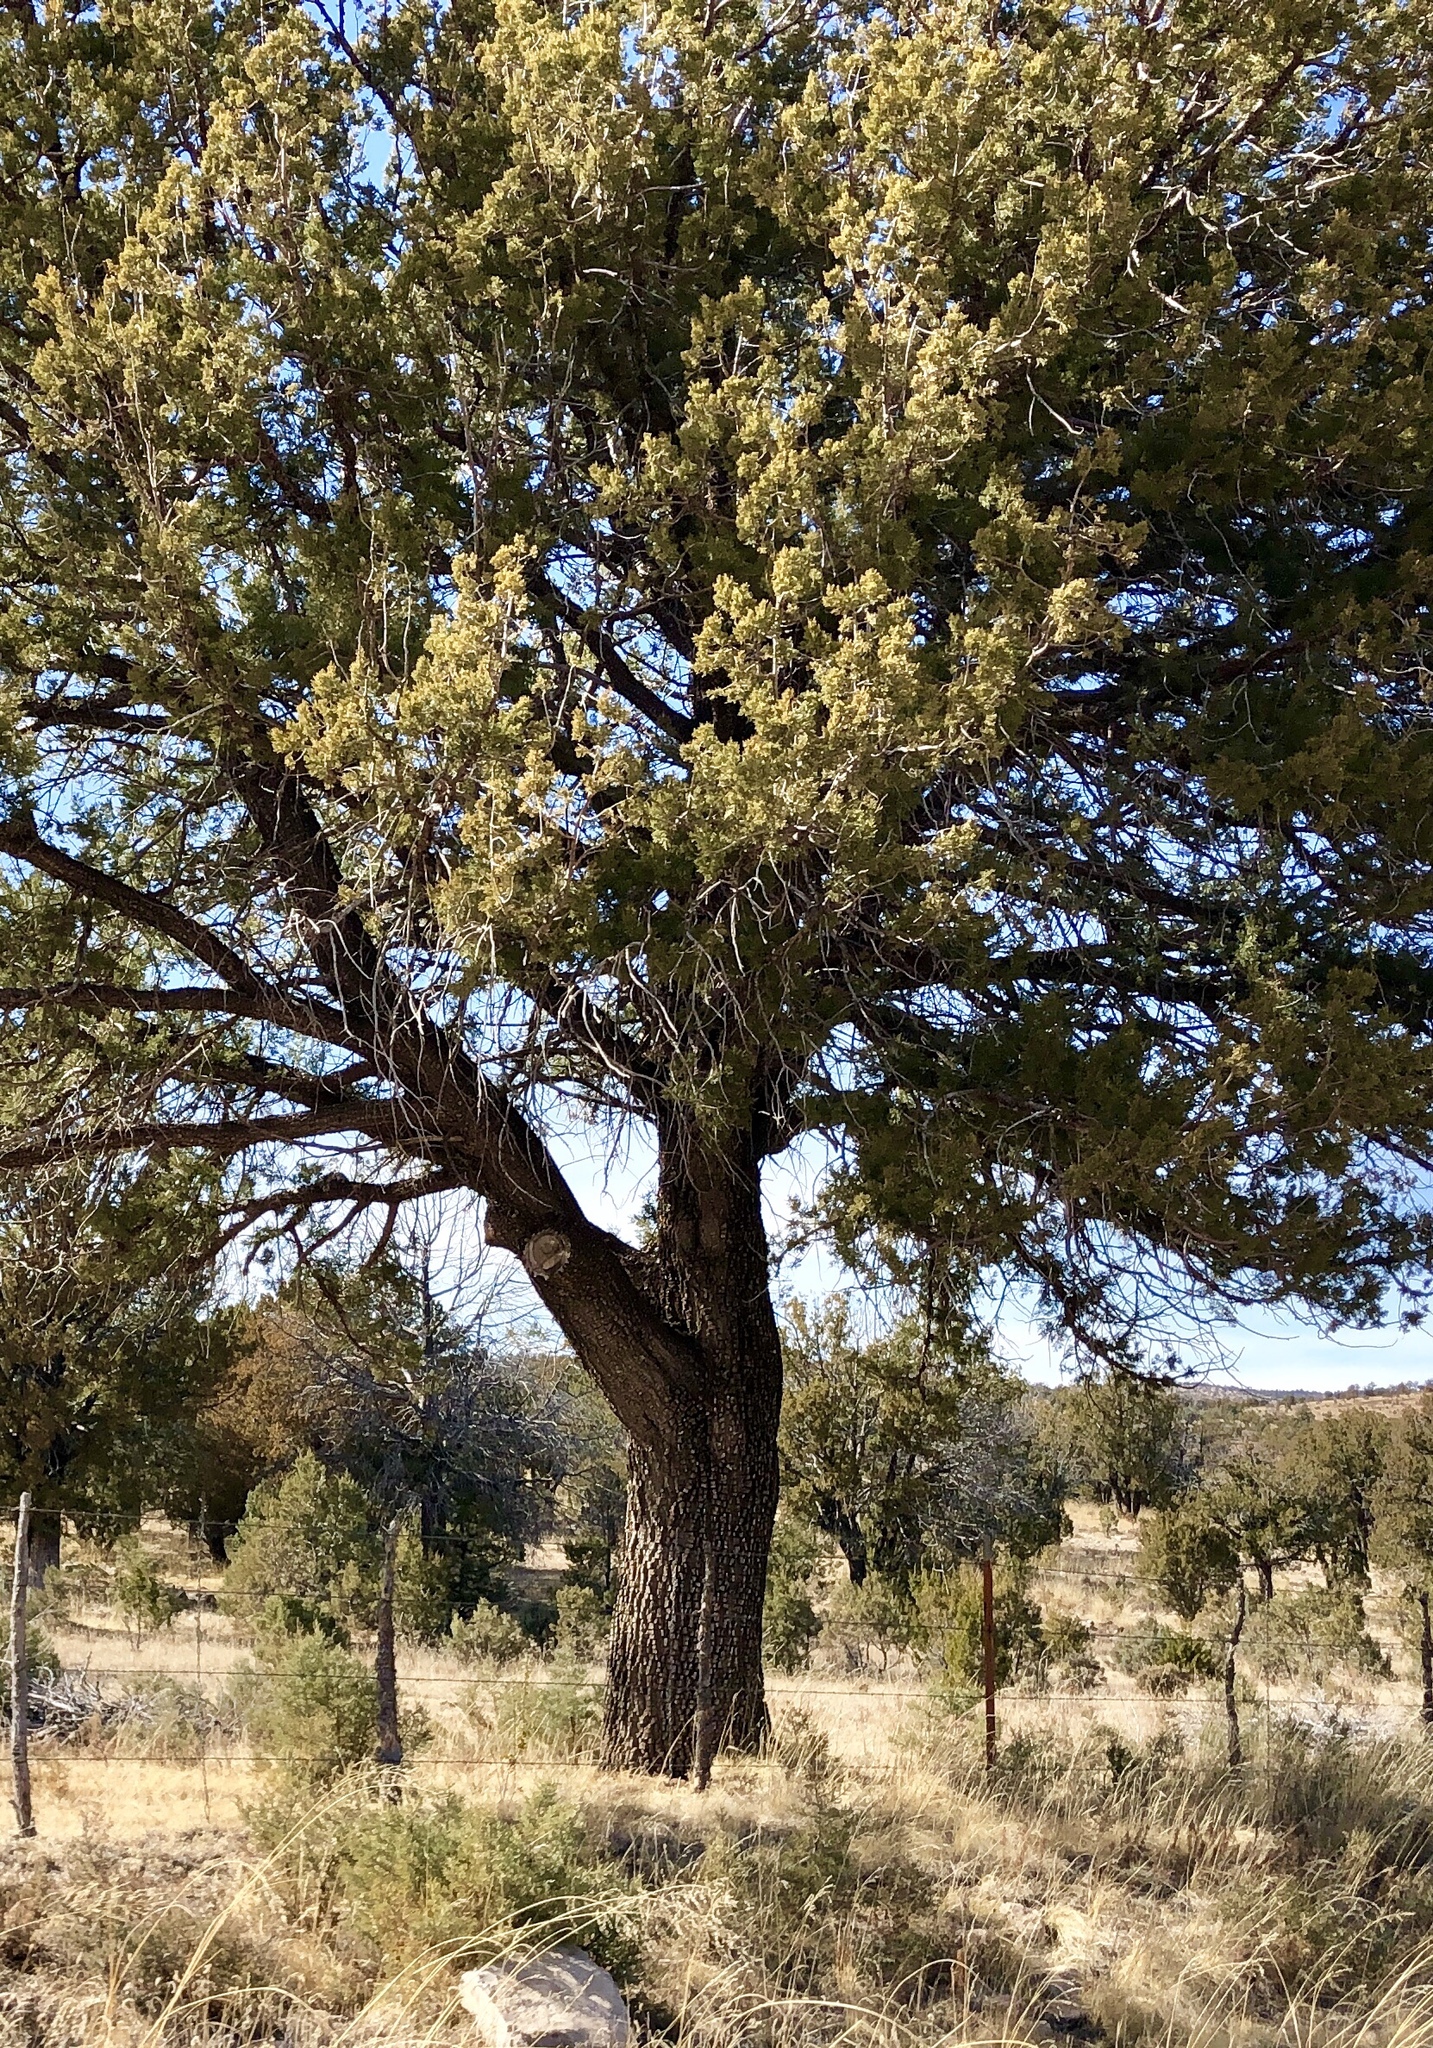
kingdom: Plantae
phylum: Tracheophyta
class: Pinopsida
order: Pinales
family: Cupressaceae
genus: Juniperus
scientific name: Juniperus deppeana
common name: Alligator juniper
